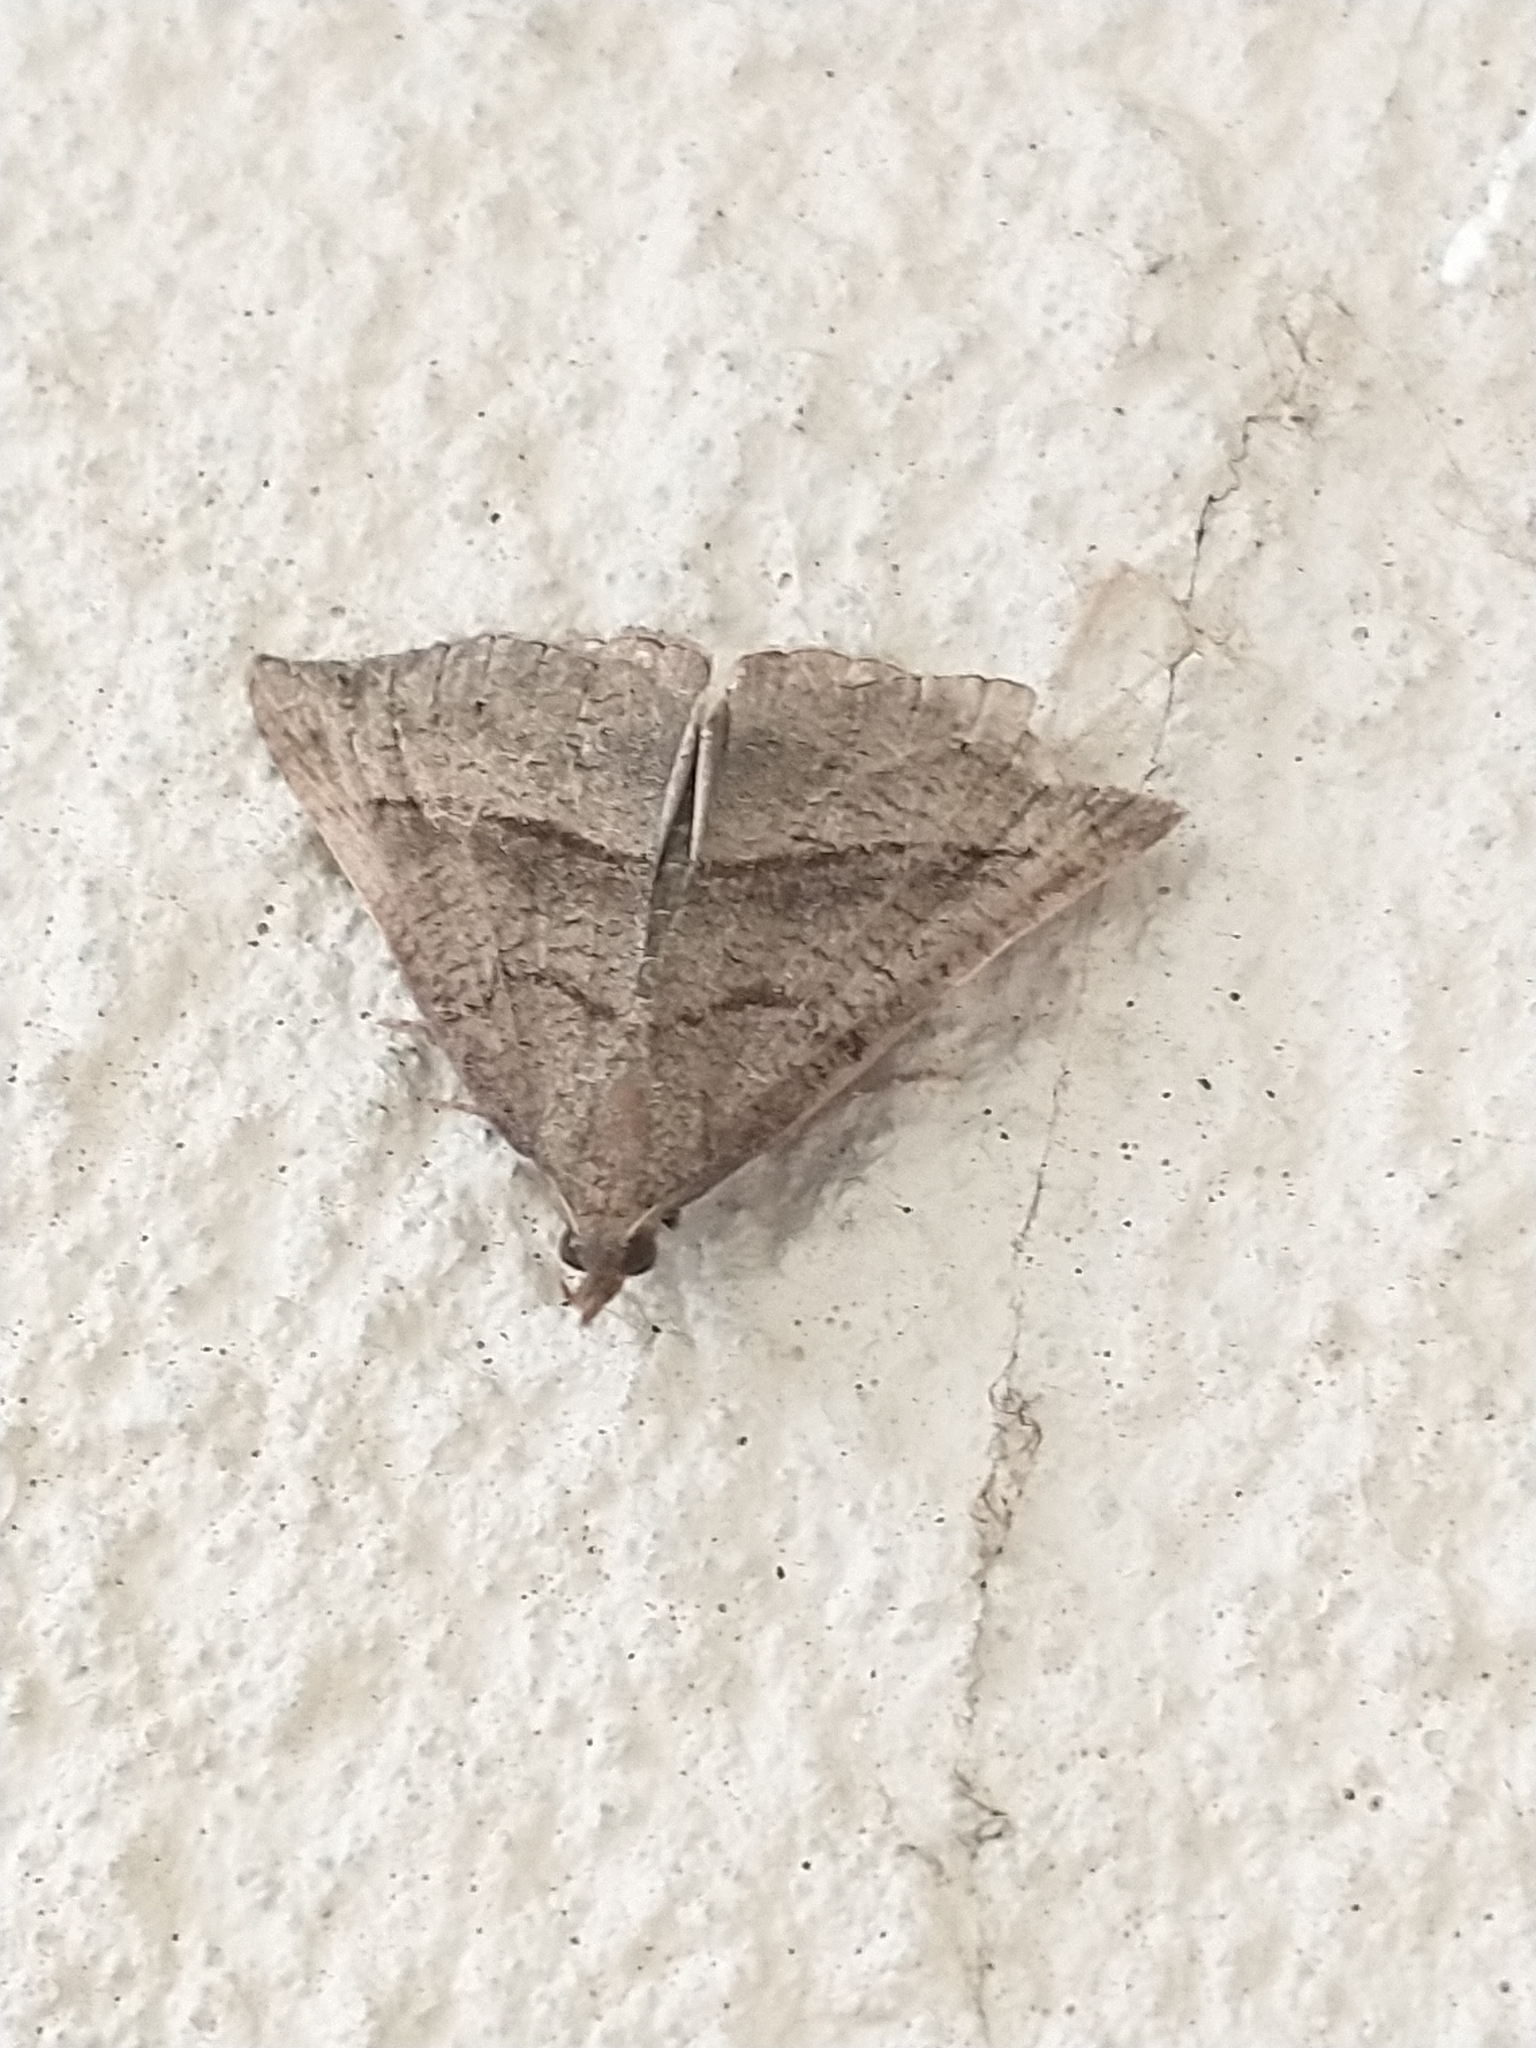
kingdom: Animalia
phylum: Arthropoda
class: Insecta
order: Lepidoptera
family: Erebidae
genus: Hypena
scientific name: Hypena proboscidalis
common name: Snout
